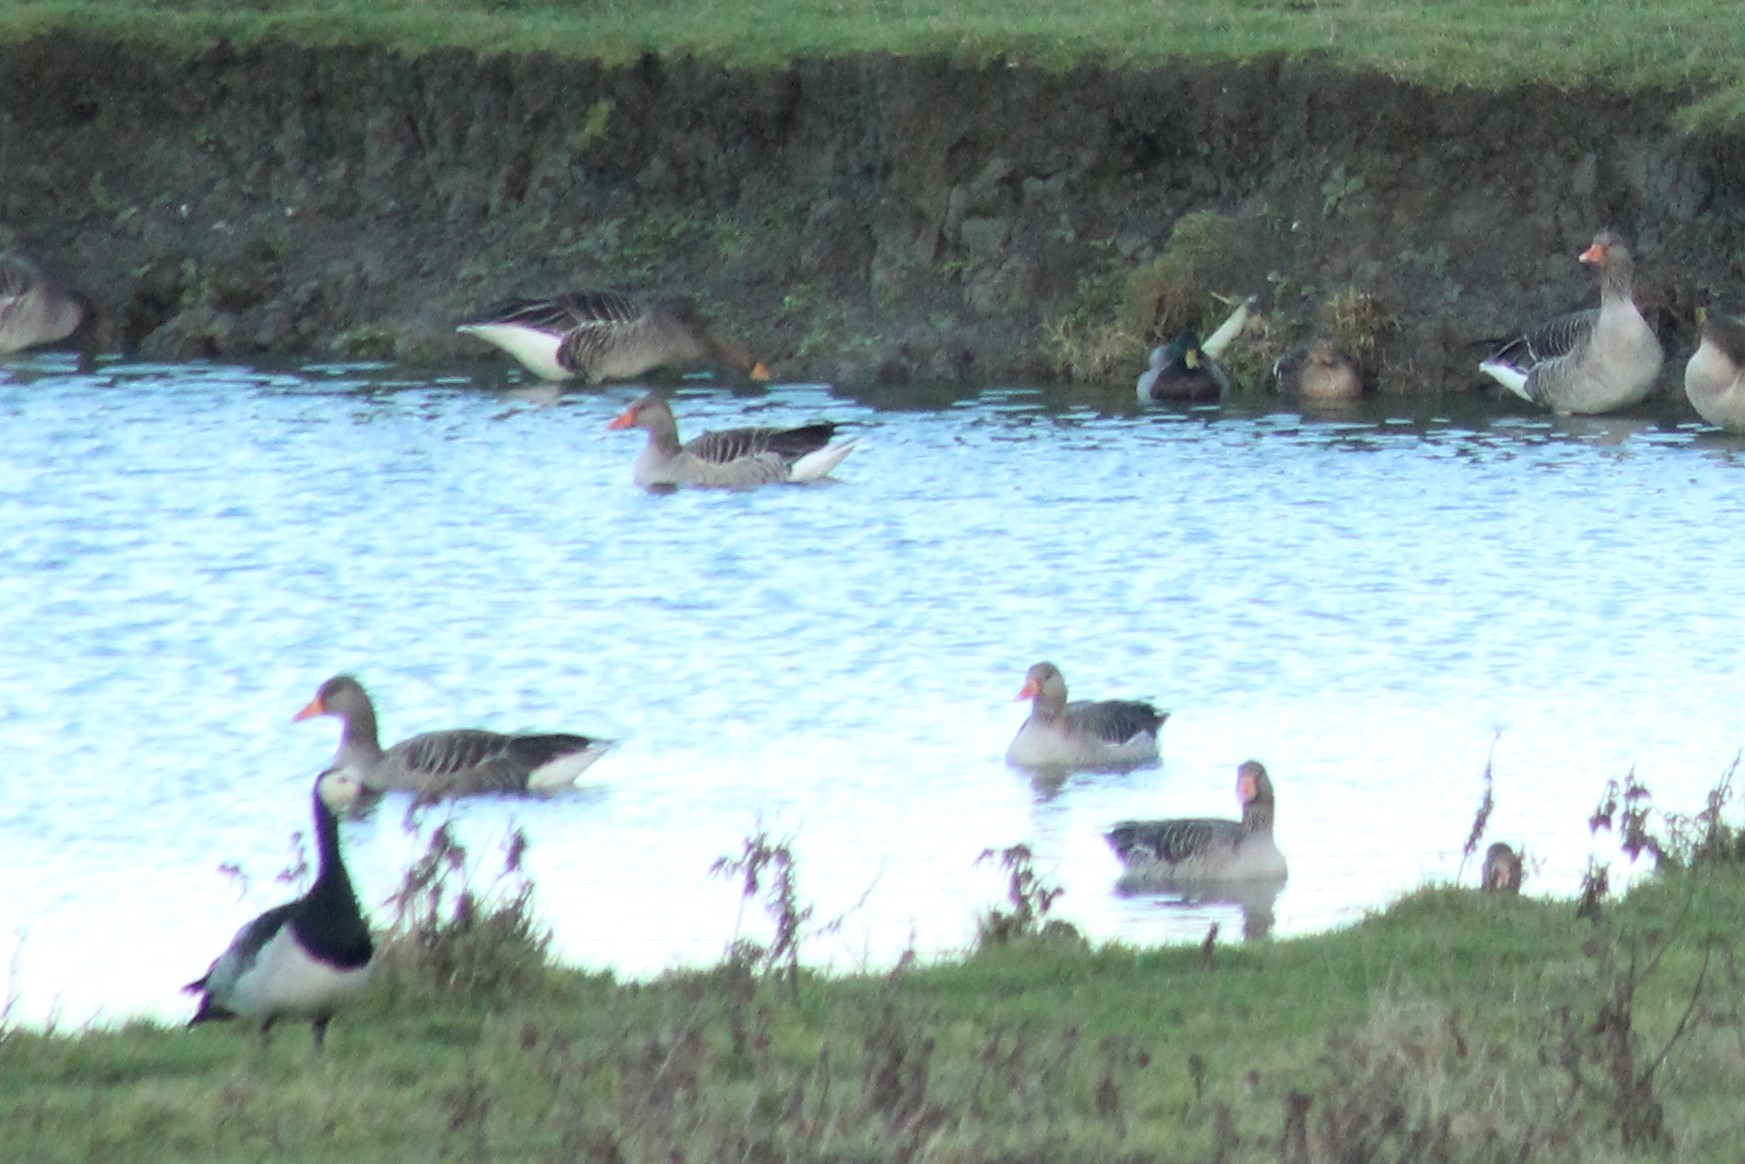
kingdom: Animalia
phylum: Chordata
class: Aves
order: Anseriformes
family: Anatidae
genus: Anser
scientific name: Anser anser
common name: Greylag goose
